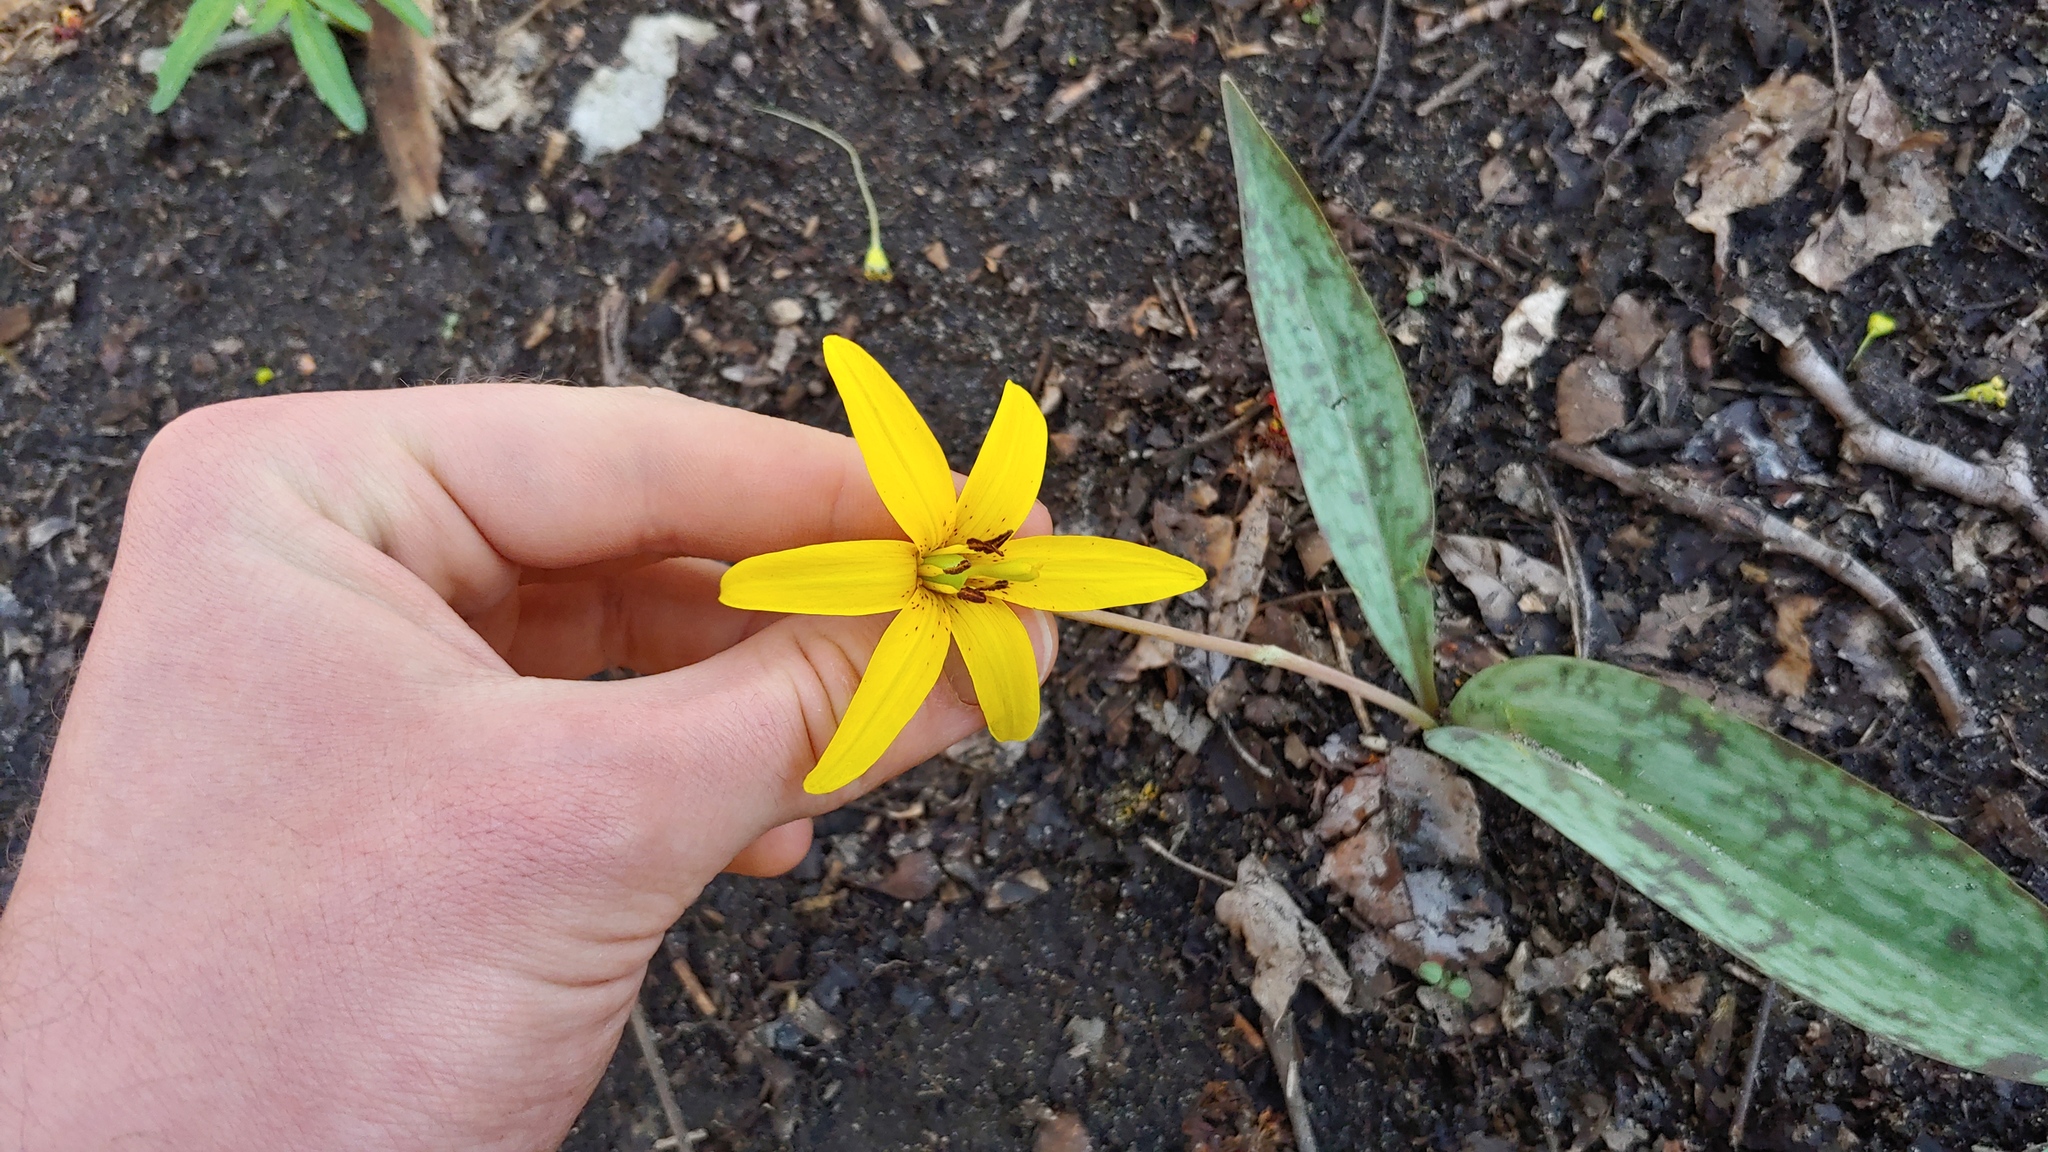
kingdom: Plantae
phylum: Tracheophyta
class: Liliopsida
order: Liliales
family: Liliaceae
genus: Erythronium
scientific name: Erythronium americanum
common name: Yellow adder's-tongue
